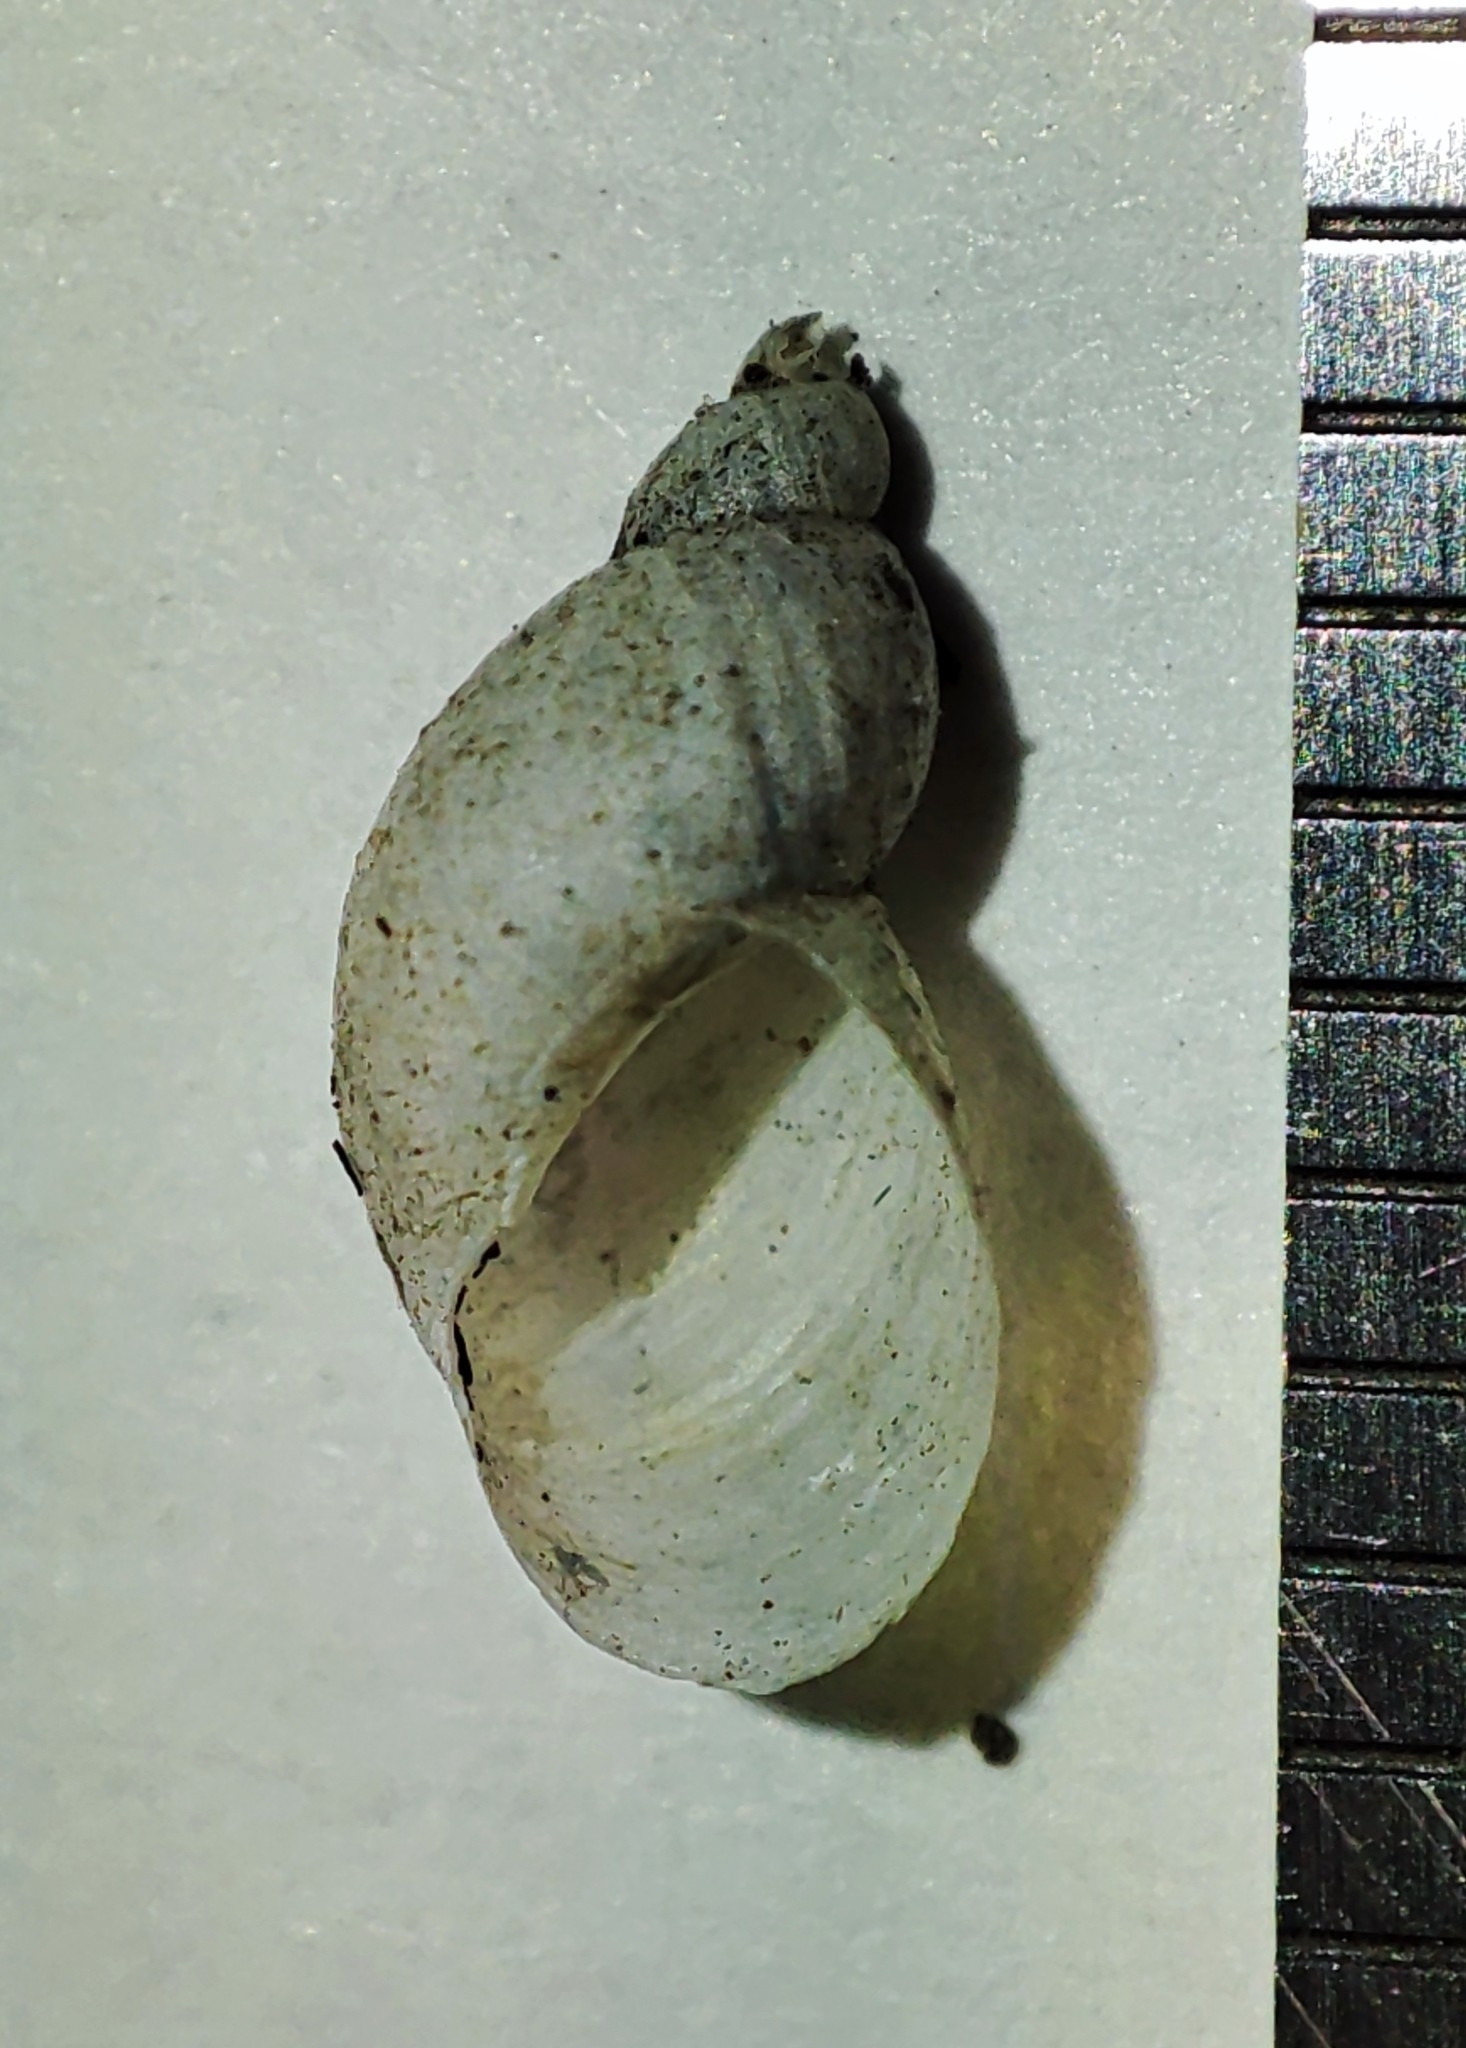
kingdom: Animalia
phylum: Mollusca
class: Gastropoda
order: Stylommatophora
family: Succineidae
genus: Succinella
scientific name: Succinella oblonga
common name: Small amber snail
